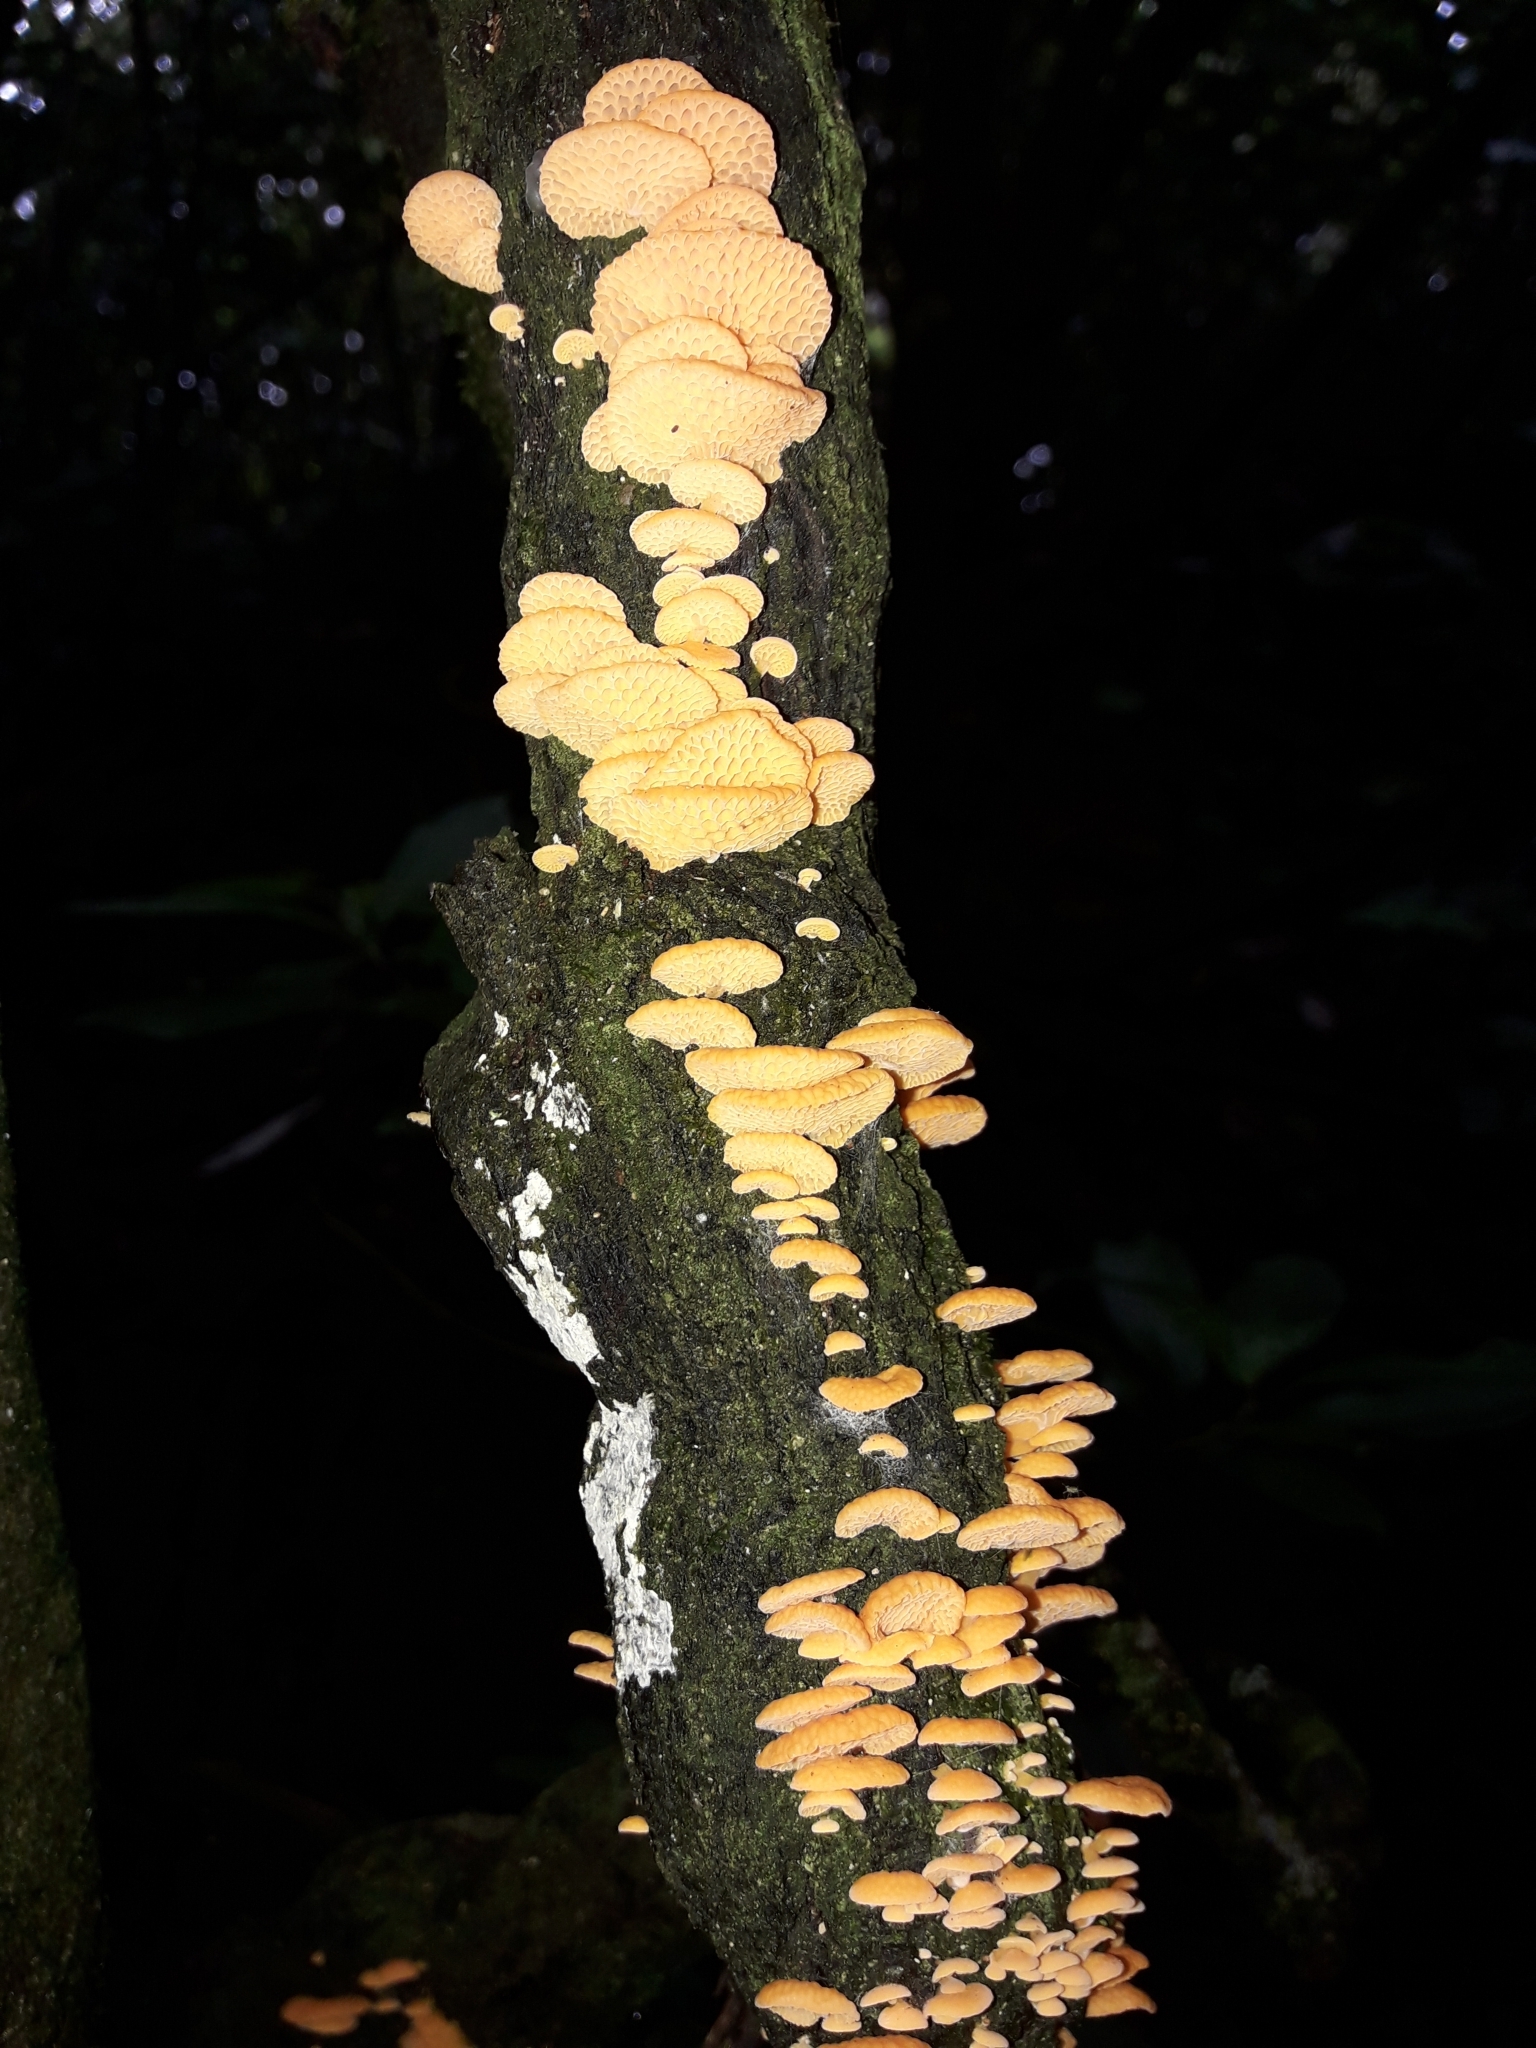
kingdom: Fungi
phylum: Basidiomycota
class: Agaricomycetes
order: Agaricales
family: Mycenaceae
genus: Favolaschia
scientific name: Favolaschia claudopus
